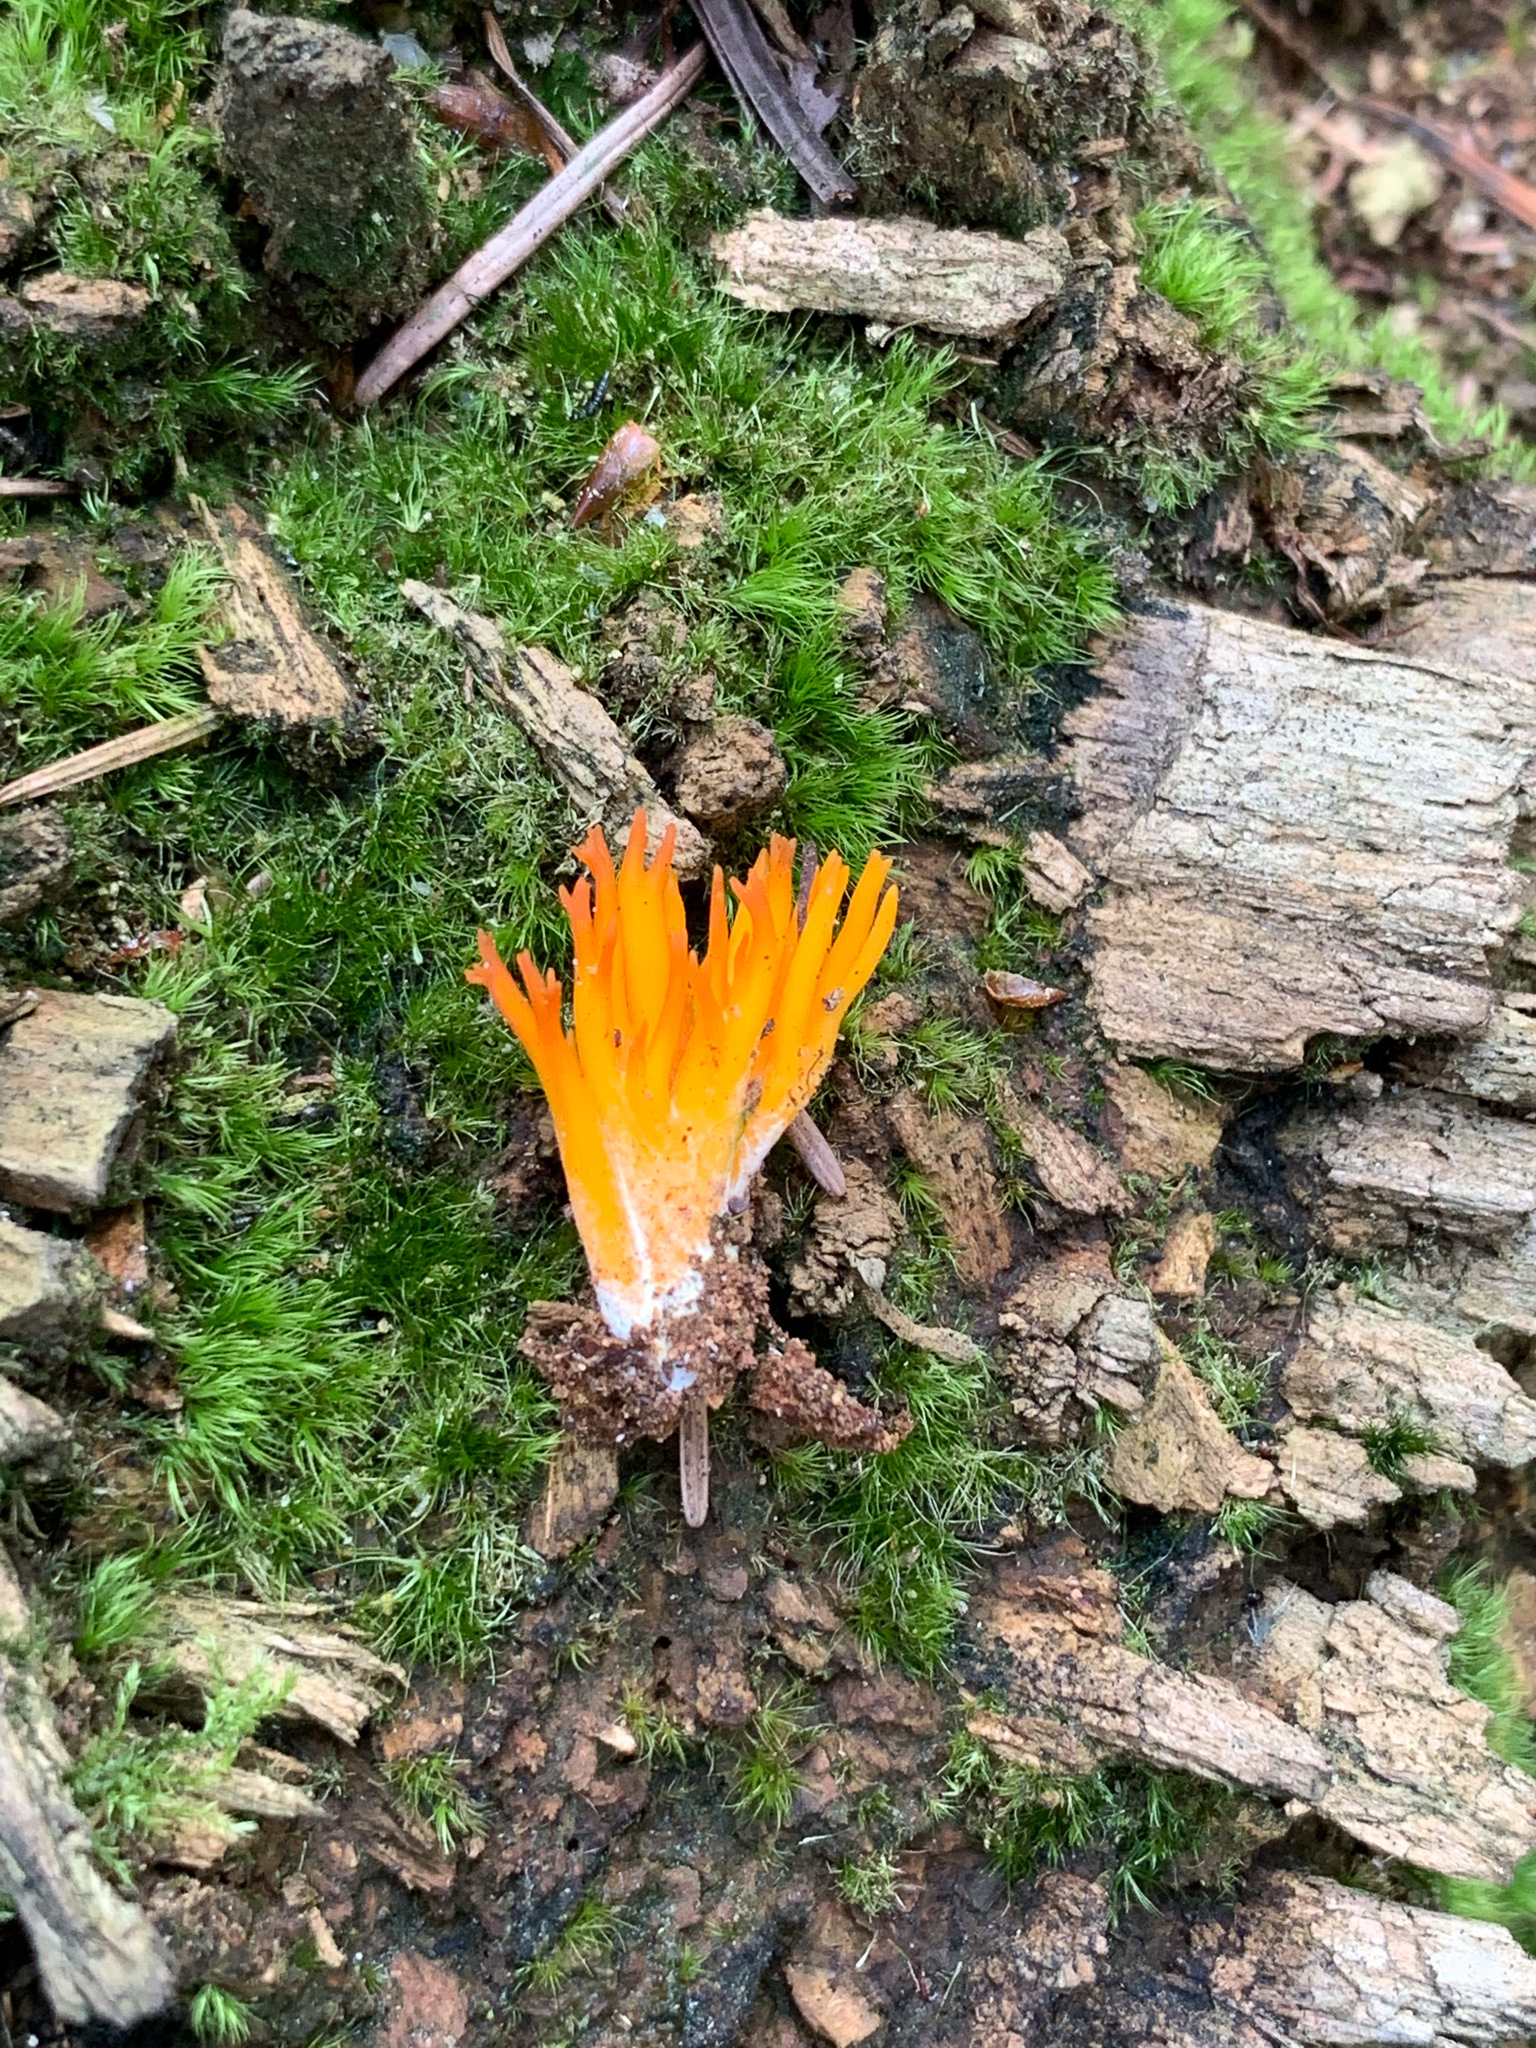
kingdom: Fungi
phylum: Basidiomycota
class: Dacrymycetes
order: Dacrymycetales
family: Dacrymycetaceae
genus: Calocera
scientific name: Calocera viscosa
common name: Yellow stagshorn
